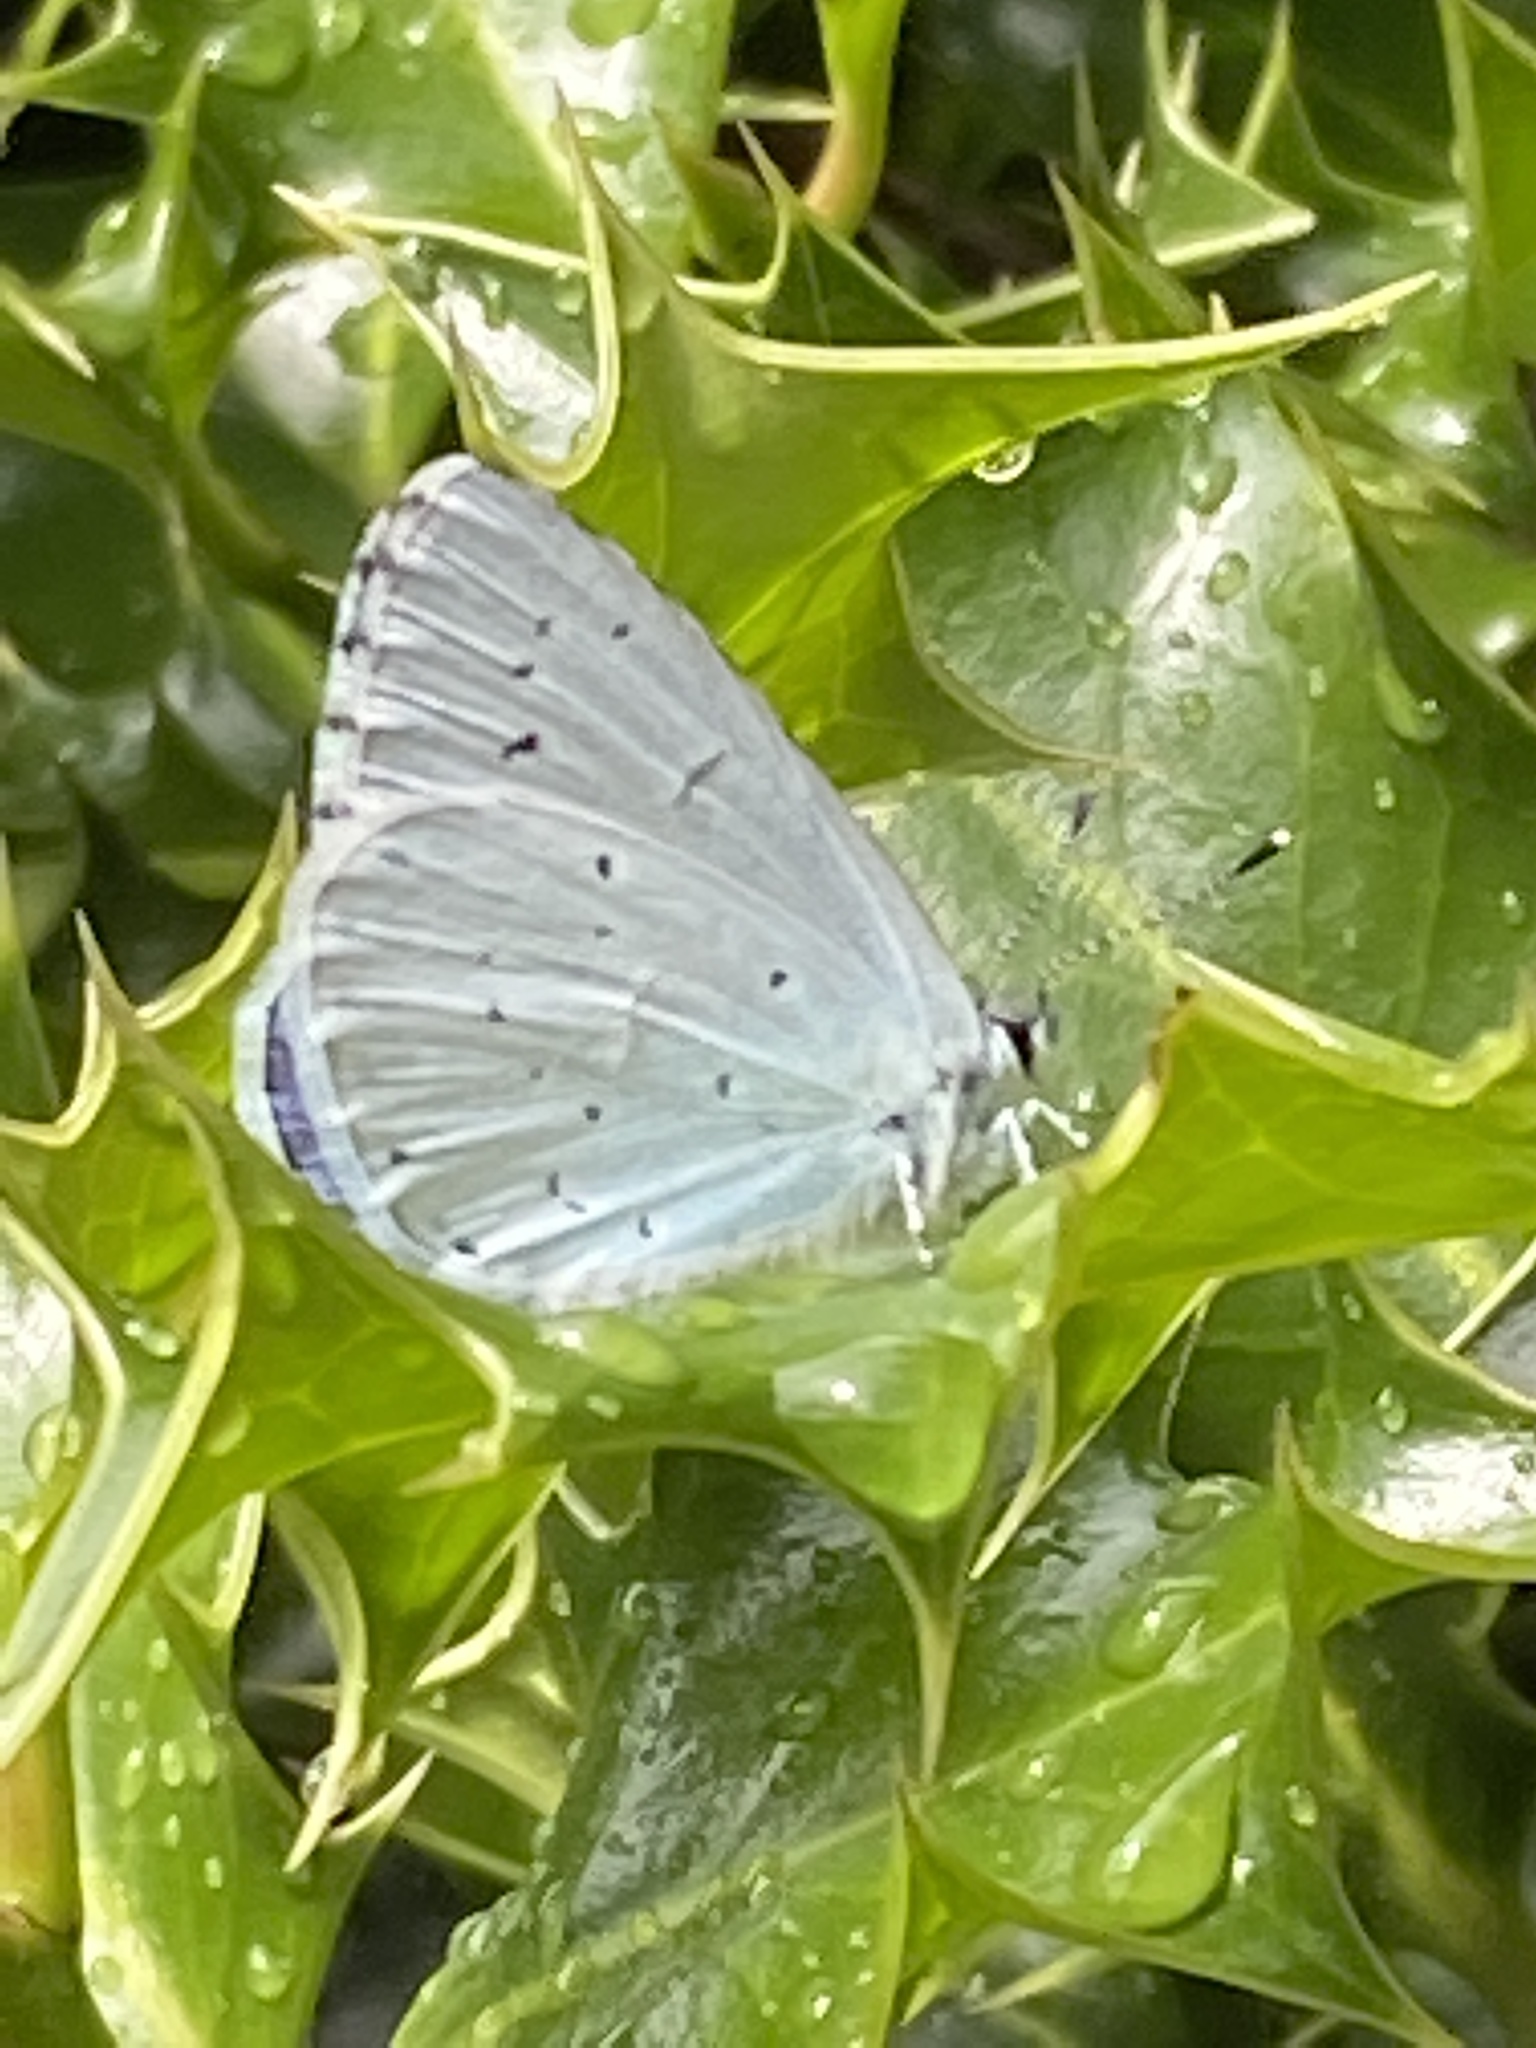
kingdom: Animalia
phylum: Arthropoda
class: Insecta
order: Lepidoptera
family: Lycaenidae
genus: Celastrina
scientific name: Celastrina argiolus
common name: Holly blue
